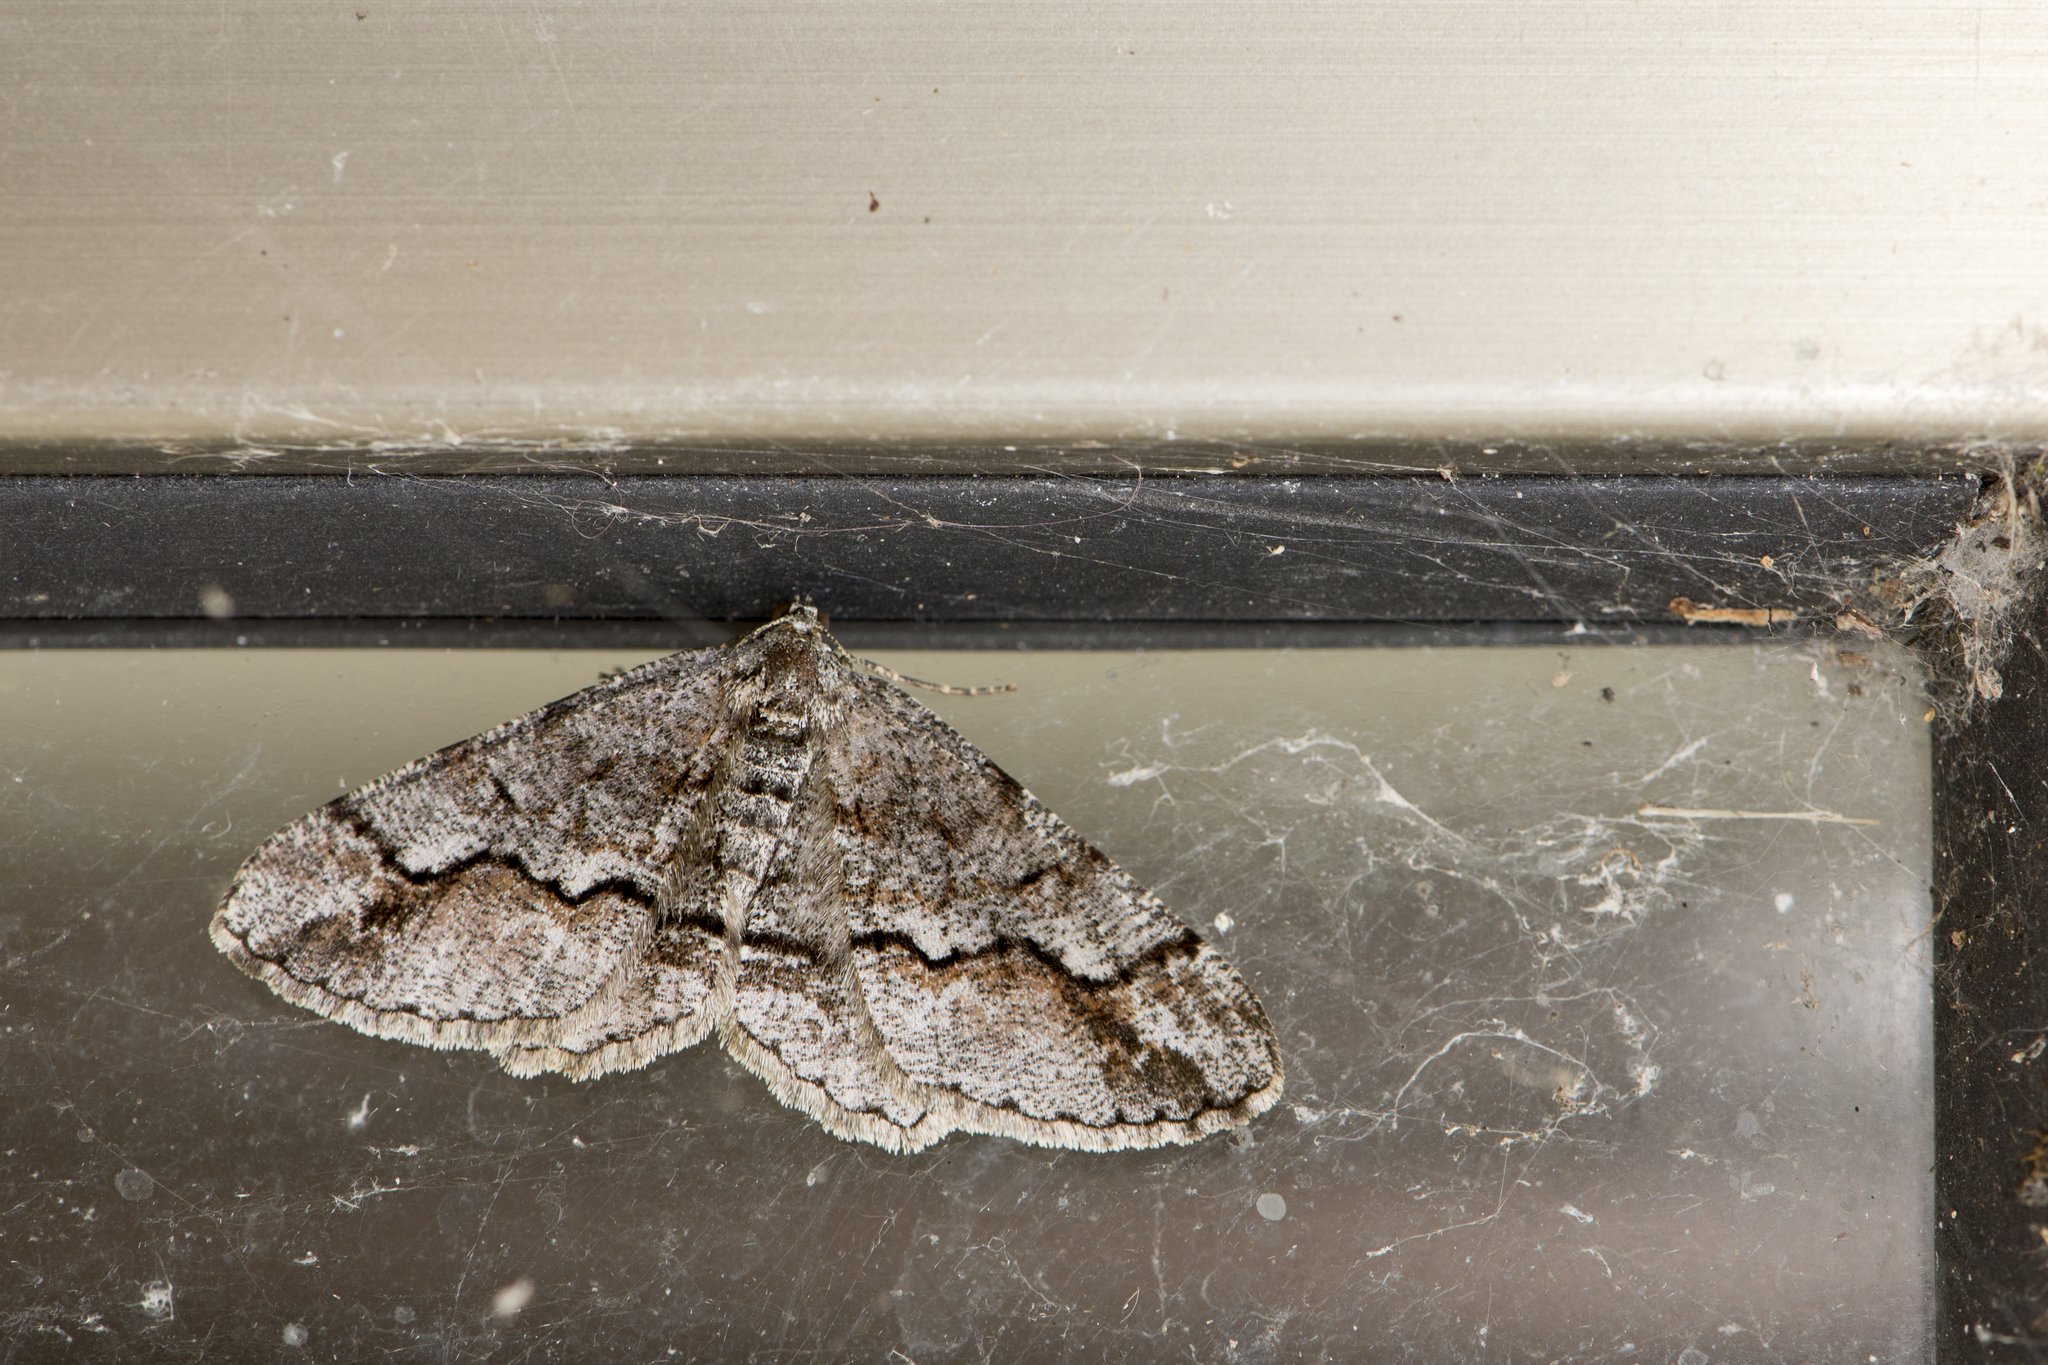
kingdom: Animalia
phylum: Arthropoda
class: Insecta
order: Lepidoptera
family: Geometridae
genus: Rikiosatoa
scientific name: Rikiosatoa fucataria
